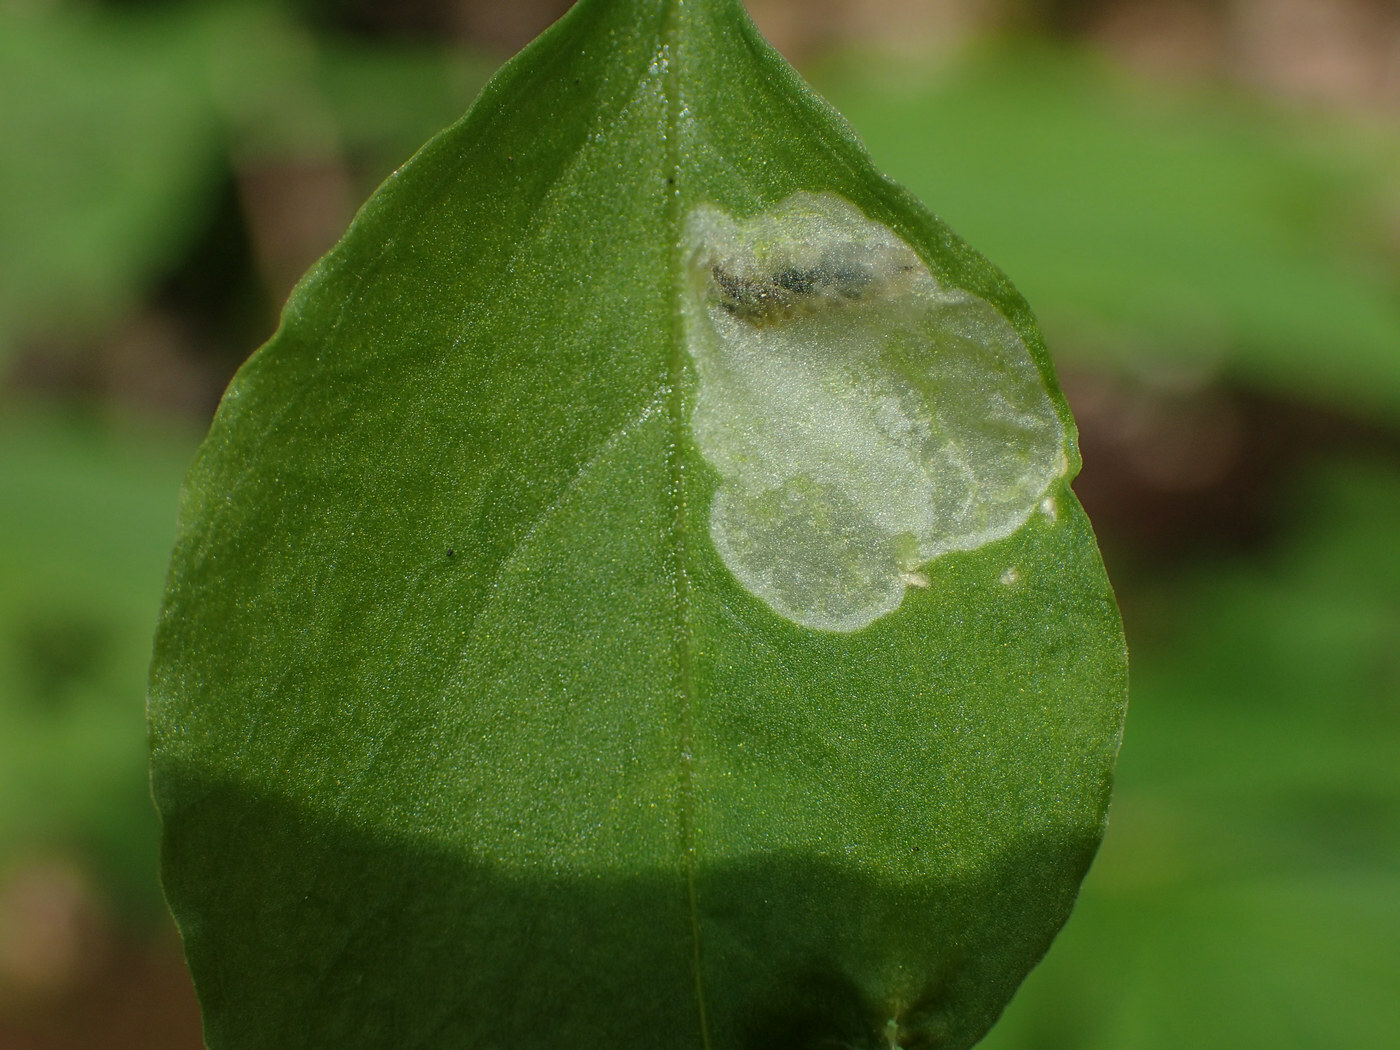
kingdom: Animalia
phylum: Arthropoda
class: Insecta
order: Diptera
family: Anthomyiidae
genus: Pegomya
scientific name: Pegomya flavifrons
